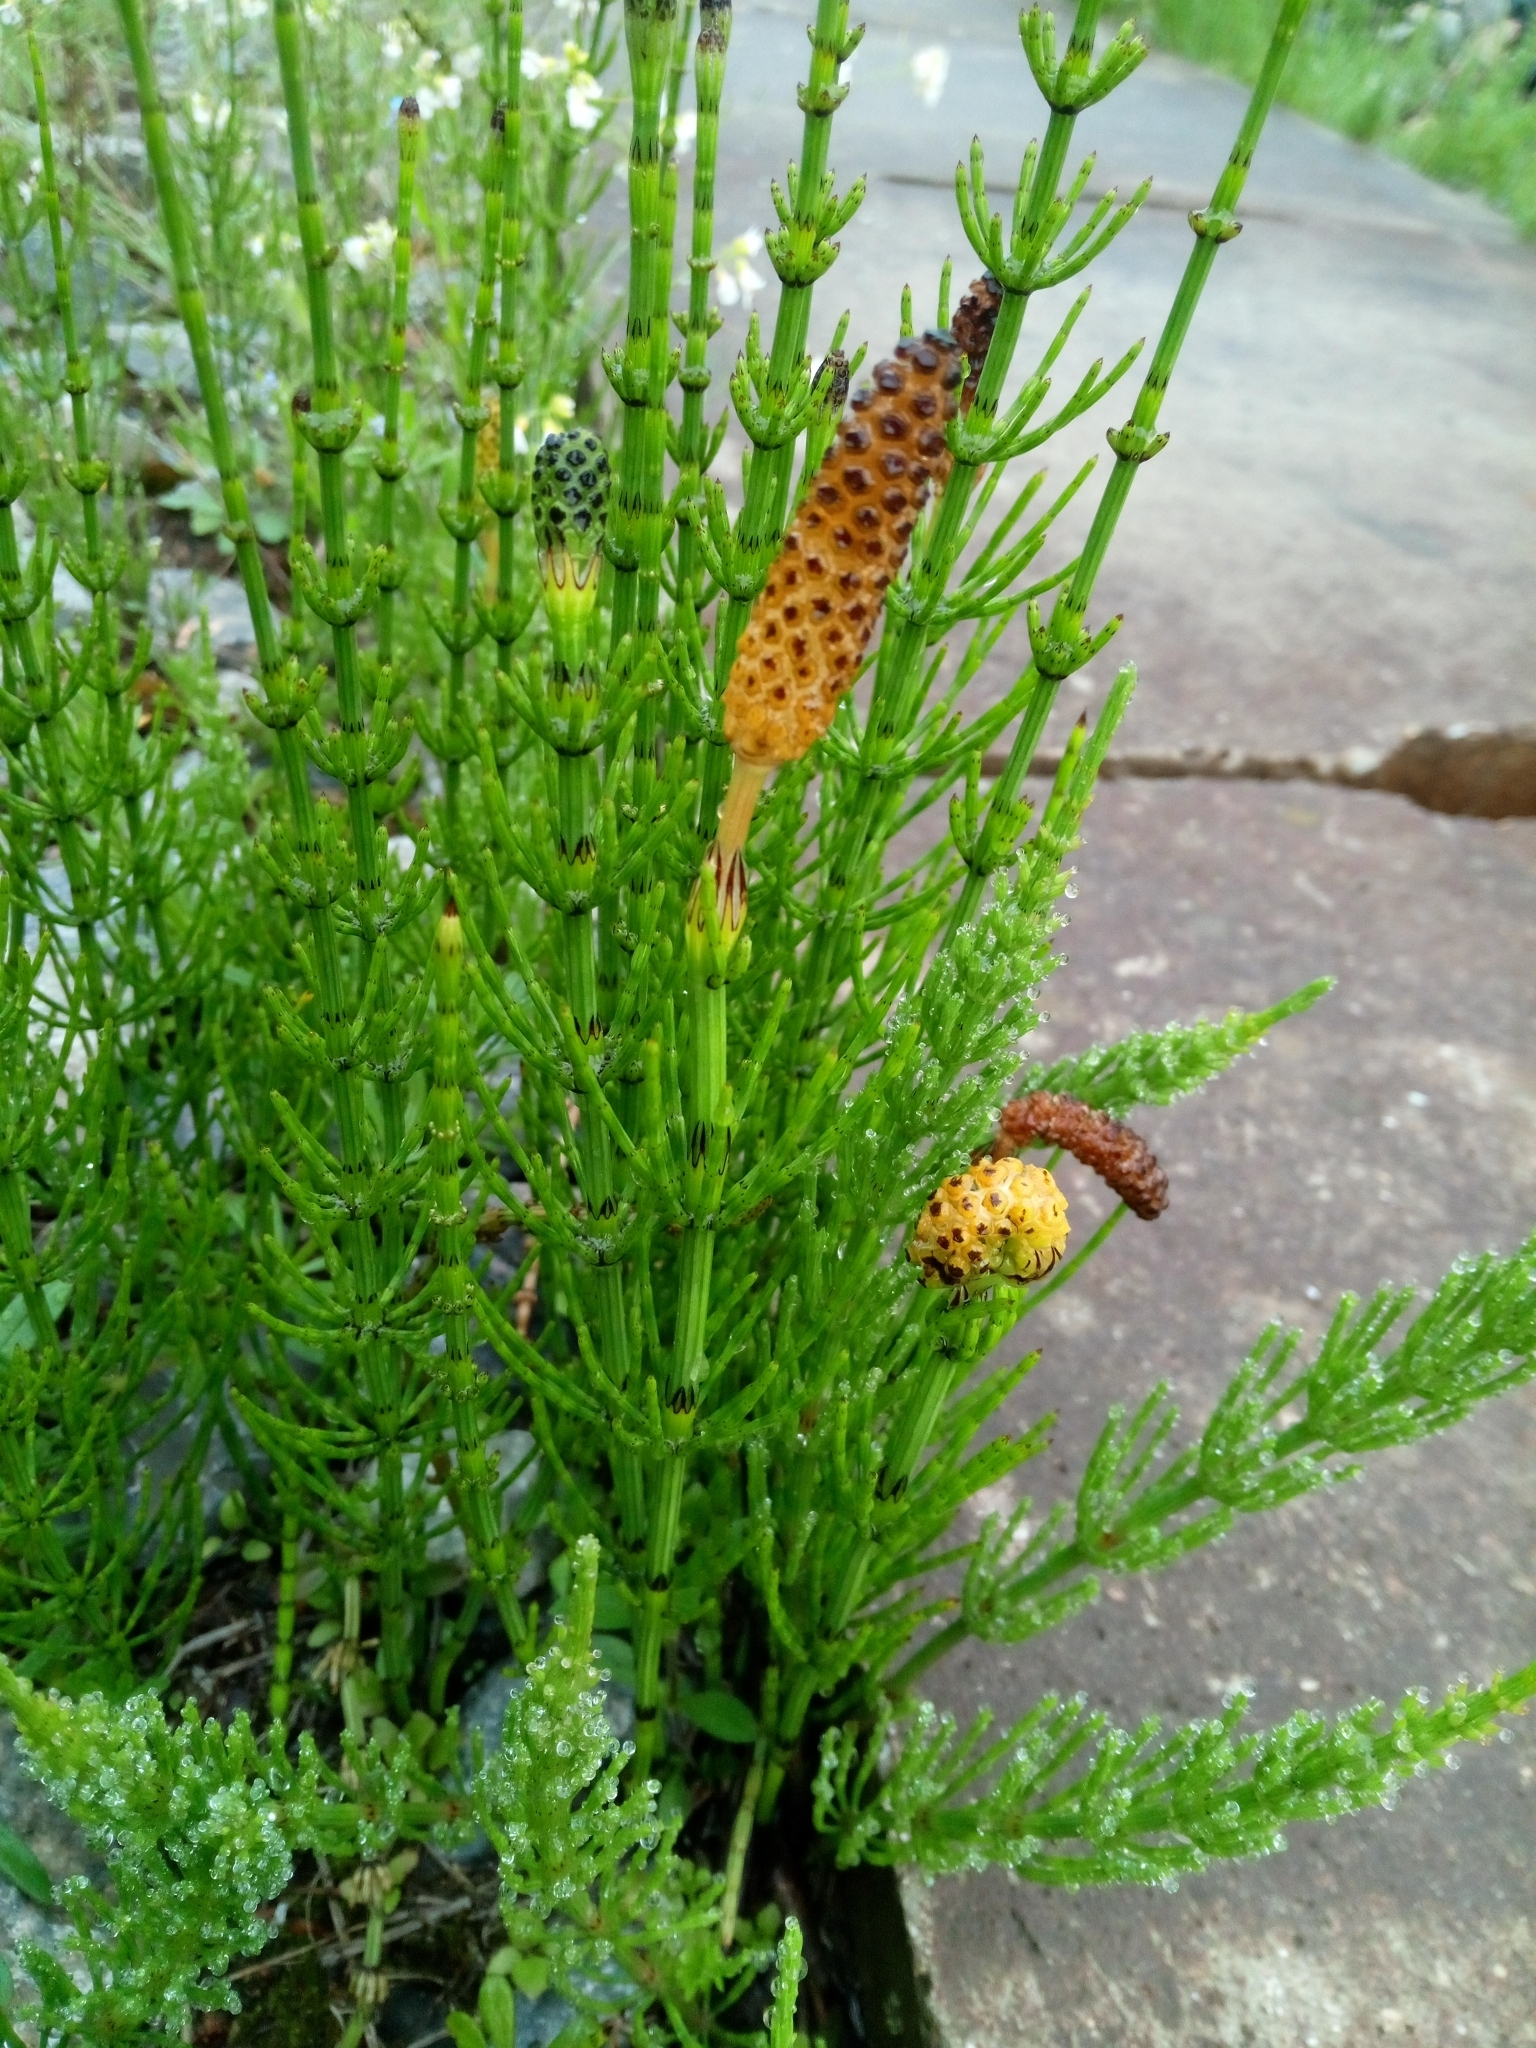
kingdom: Plantae
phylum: Tracheophyta
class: Polypodiopsida
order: Equisetales
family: Equisetaceae
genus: Equisetum
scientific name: Equisetum palustre
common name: Marsh horsetail
